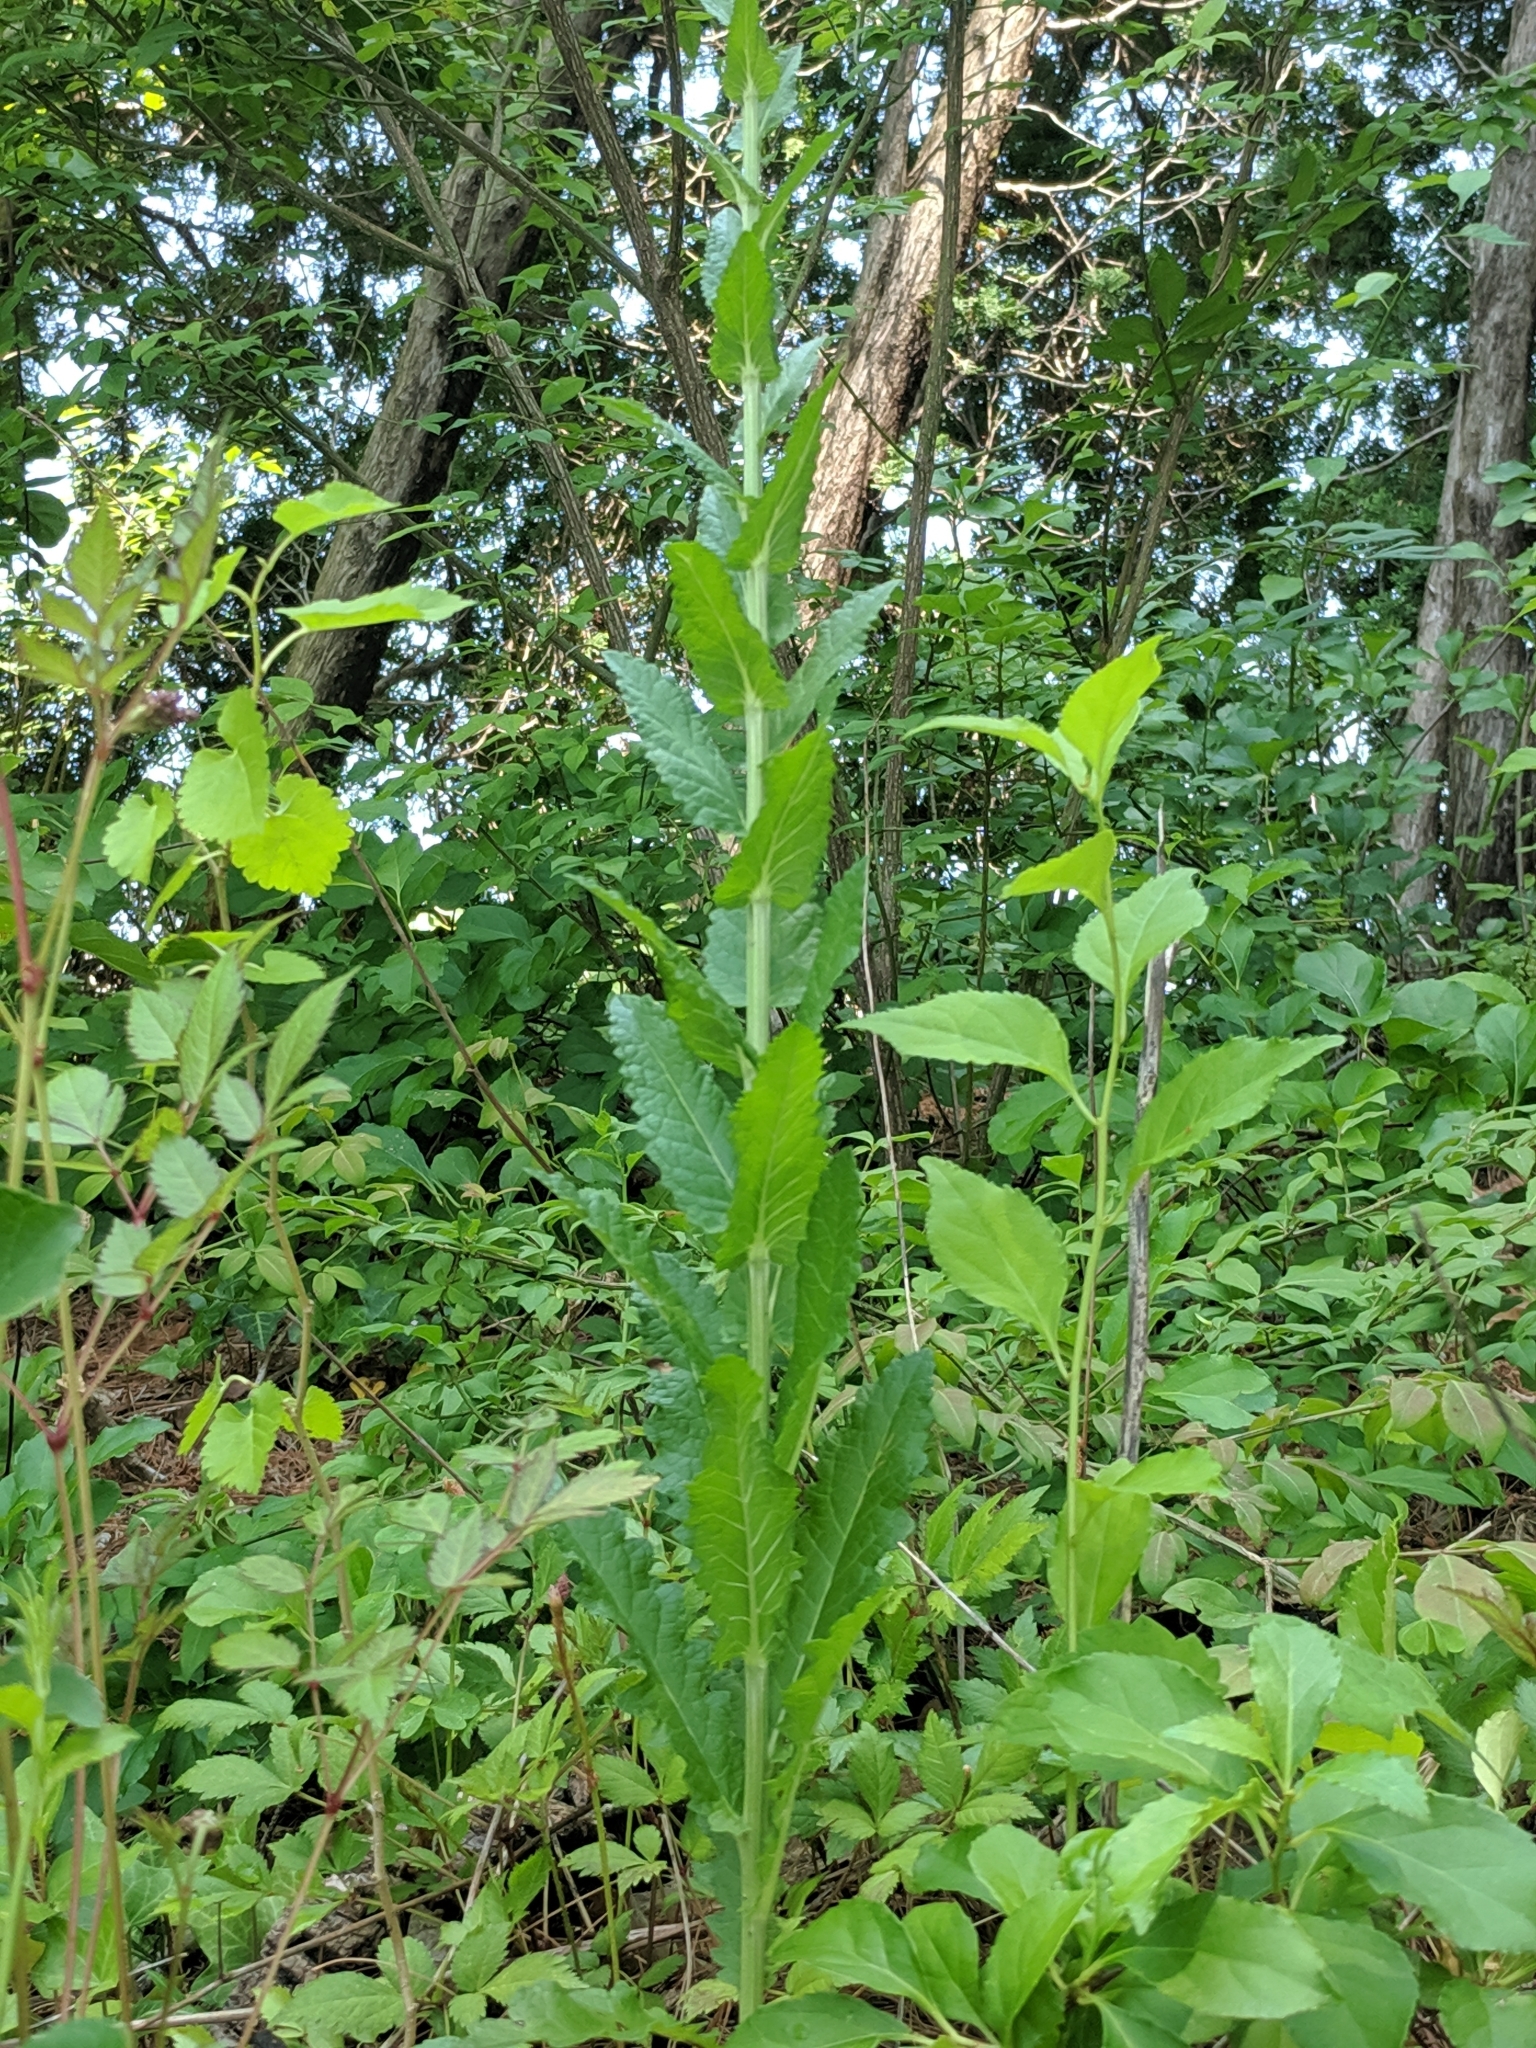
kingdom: Plantae
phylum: Tracheophyta
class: Magnoliopsida
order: Lamiales
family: Scrophulariaceae
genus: Verbascum
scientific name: Verbascum blattaria
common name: Moth mullein
